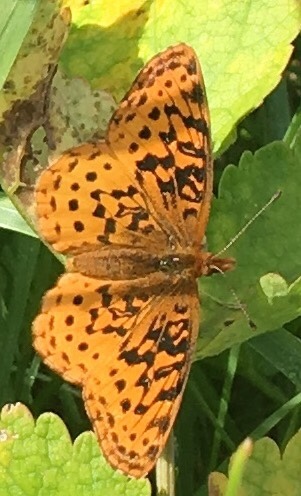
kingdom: Animalia
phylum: Arthropoda
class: Insecta
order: Lepidoptera
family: Nymphalidae
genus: Clossiana
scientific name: Clossiana toddi
